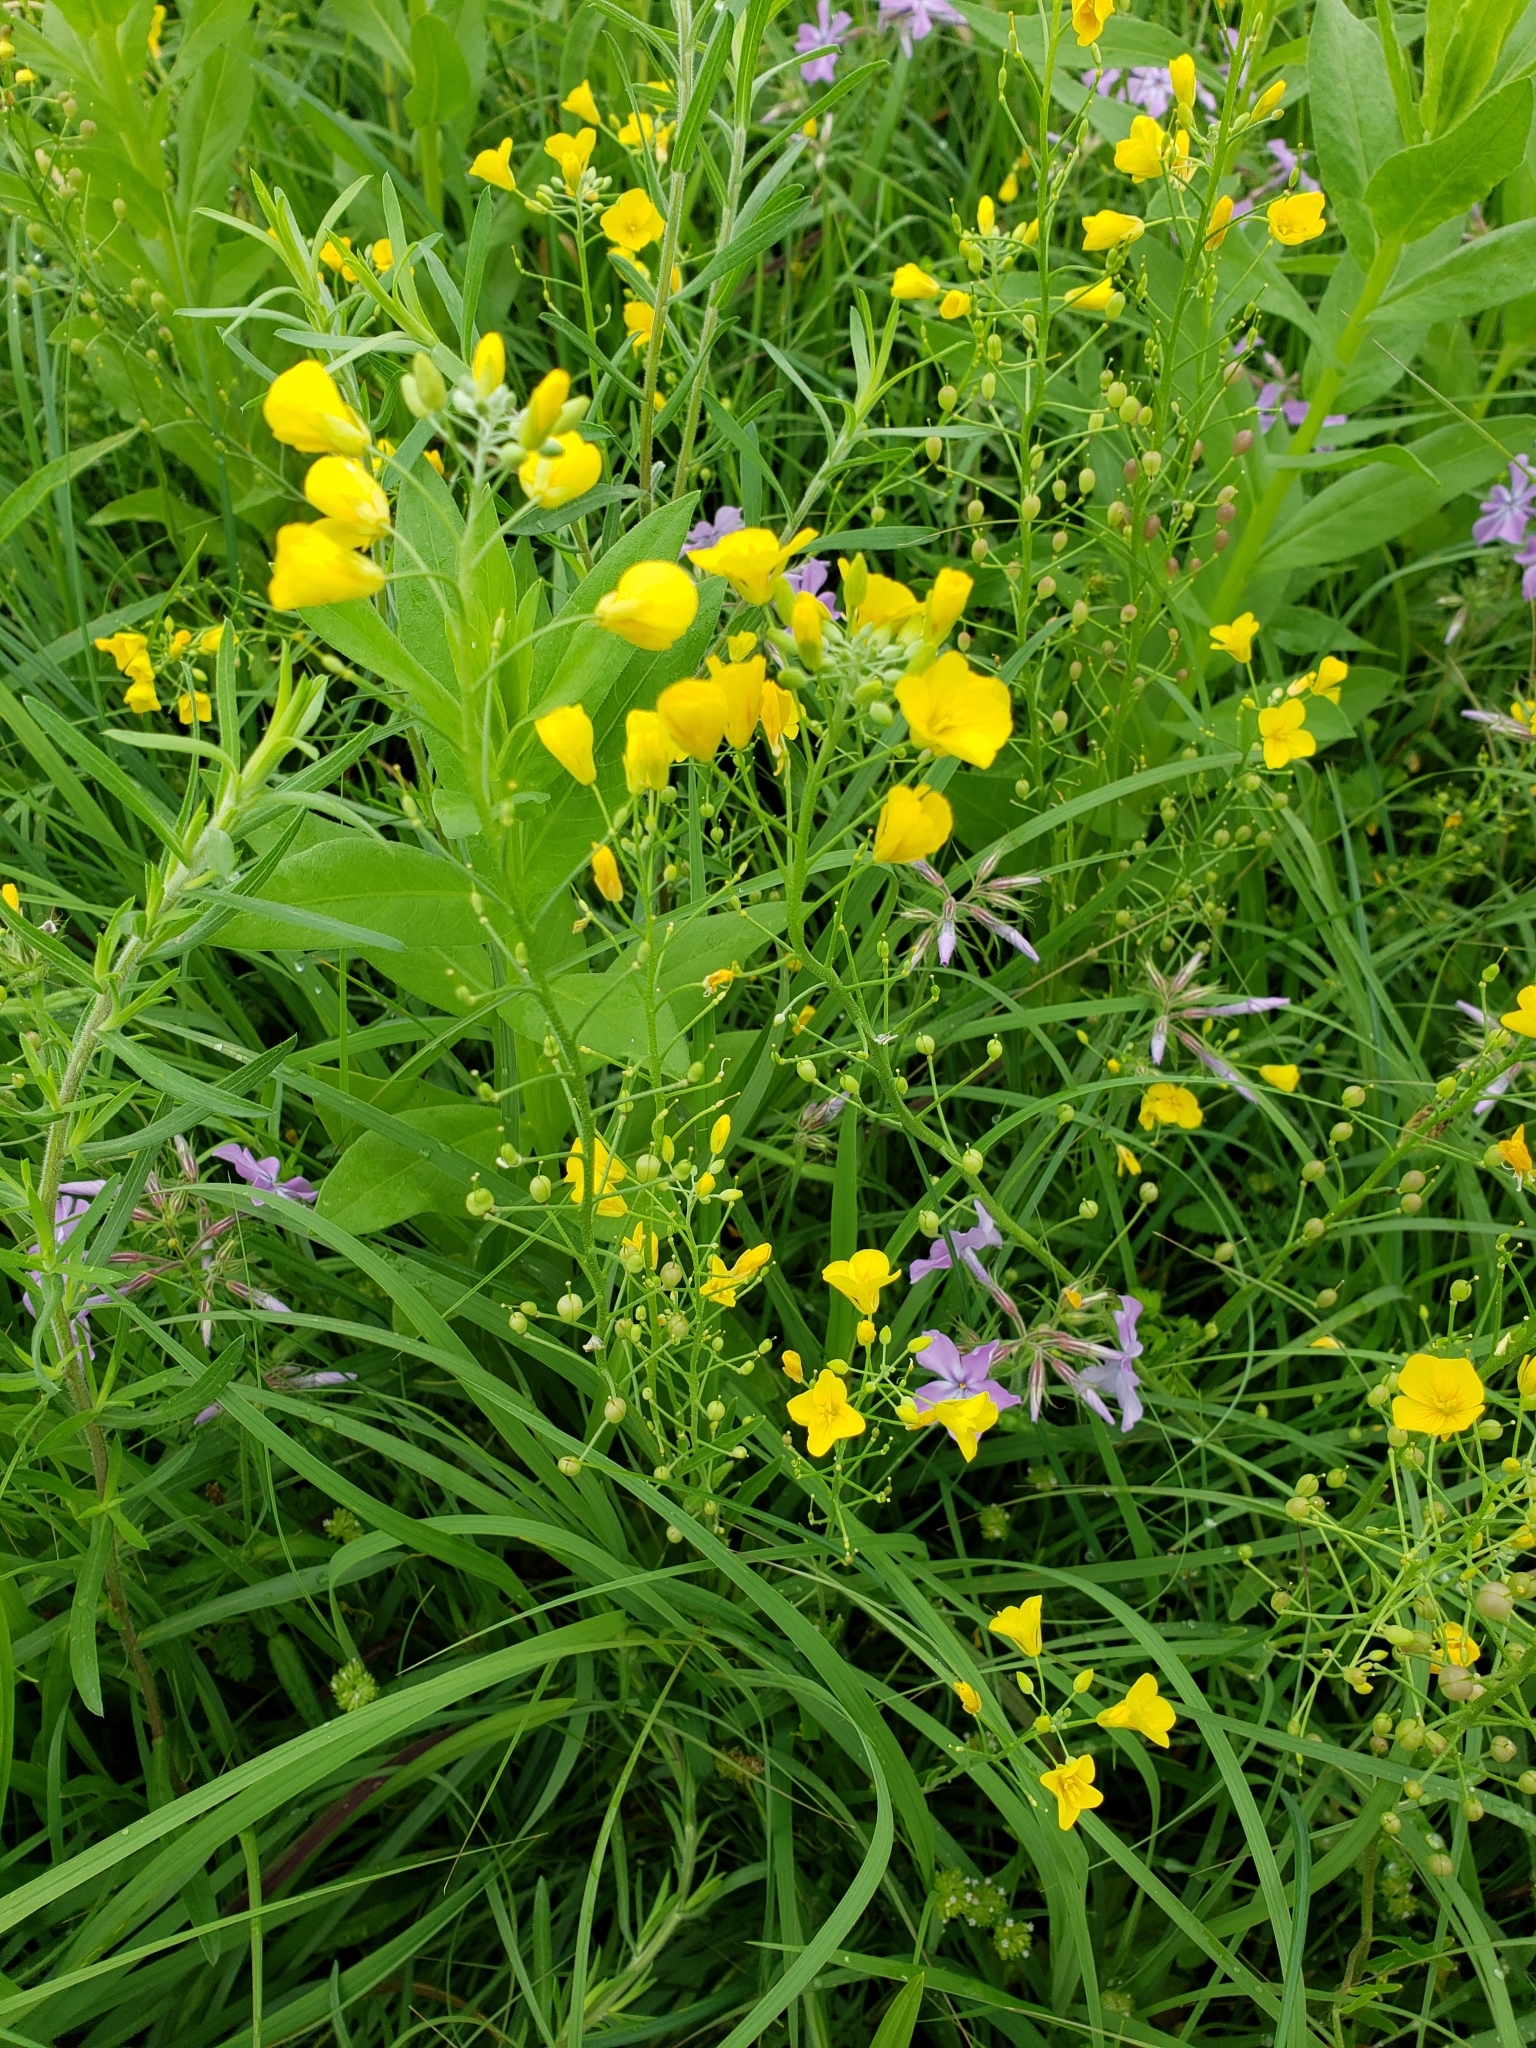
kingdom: Plantae
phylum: Tracheophyta
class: Magnoliopsida
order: Brassicales
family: Brassicaceae
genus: Physaria
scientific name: Physaria gracilis
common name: Spreading bladderpod
